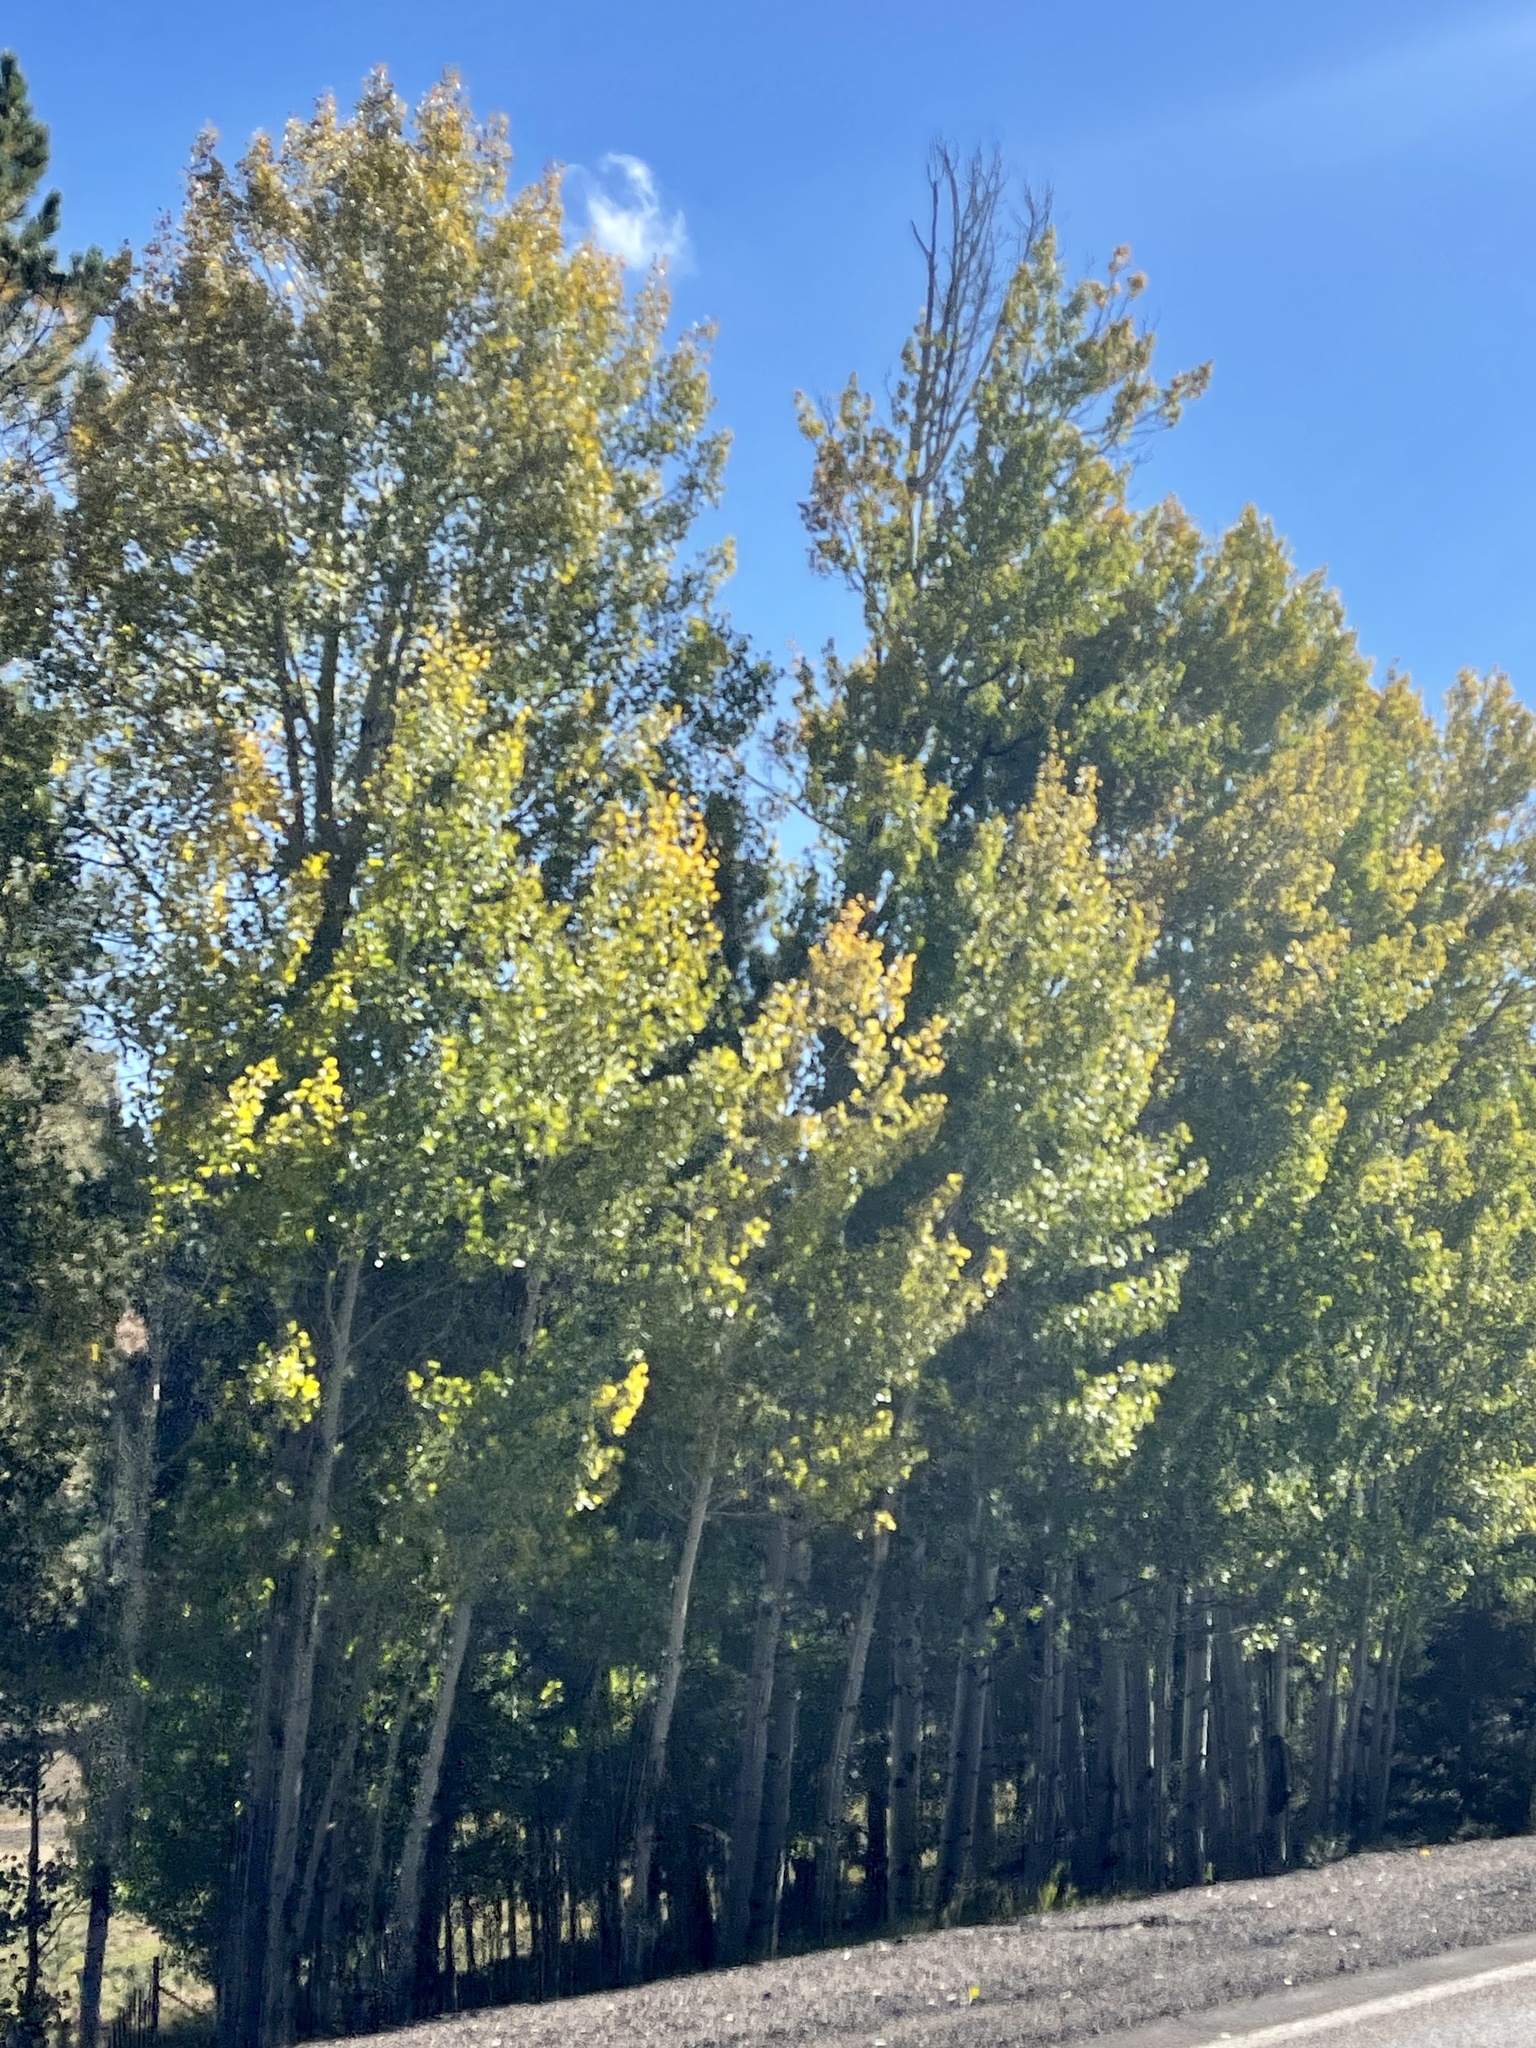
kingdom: Plantae
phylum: Tracheophyta
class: Magnoliopsida
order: Malpighiales
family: Salicaceae
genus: Populus
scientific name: Populus tremuloides
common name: Quaking aspen
